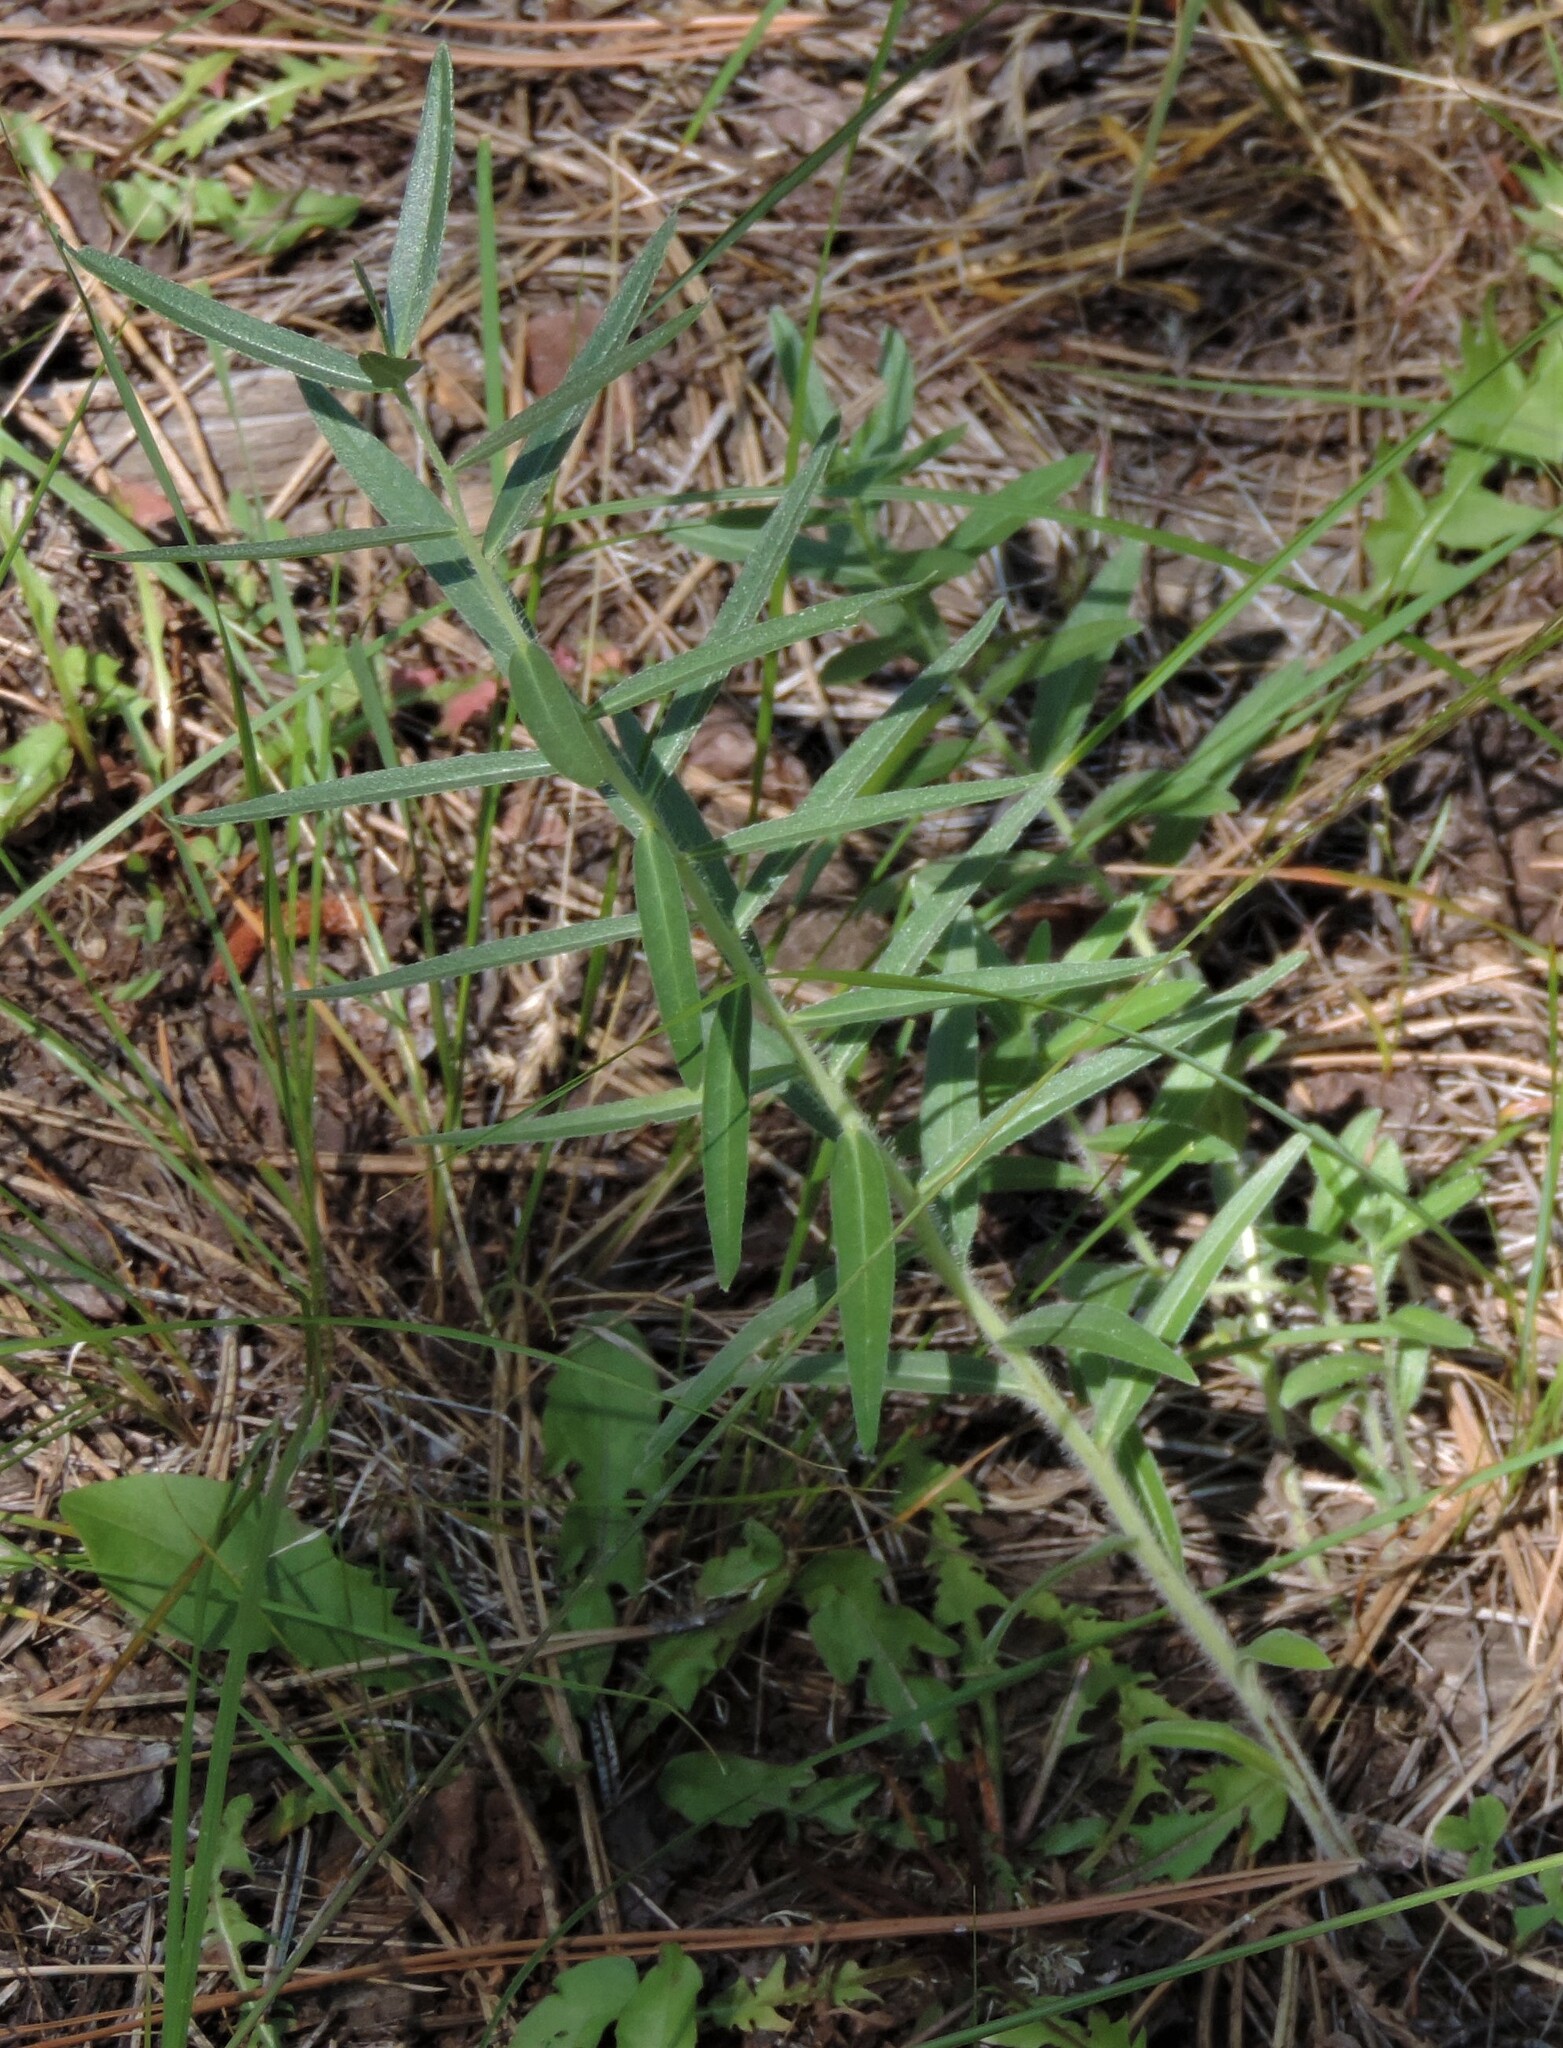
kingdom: Plantae
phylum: Tracheophyta
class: Magnoliopsida
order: Boraginales
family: Boraginaceae
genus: Lithospermum
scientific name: Lithospermum ruderale
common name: Western gromwell
